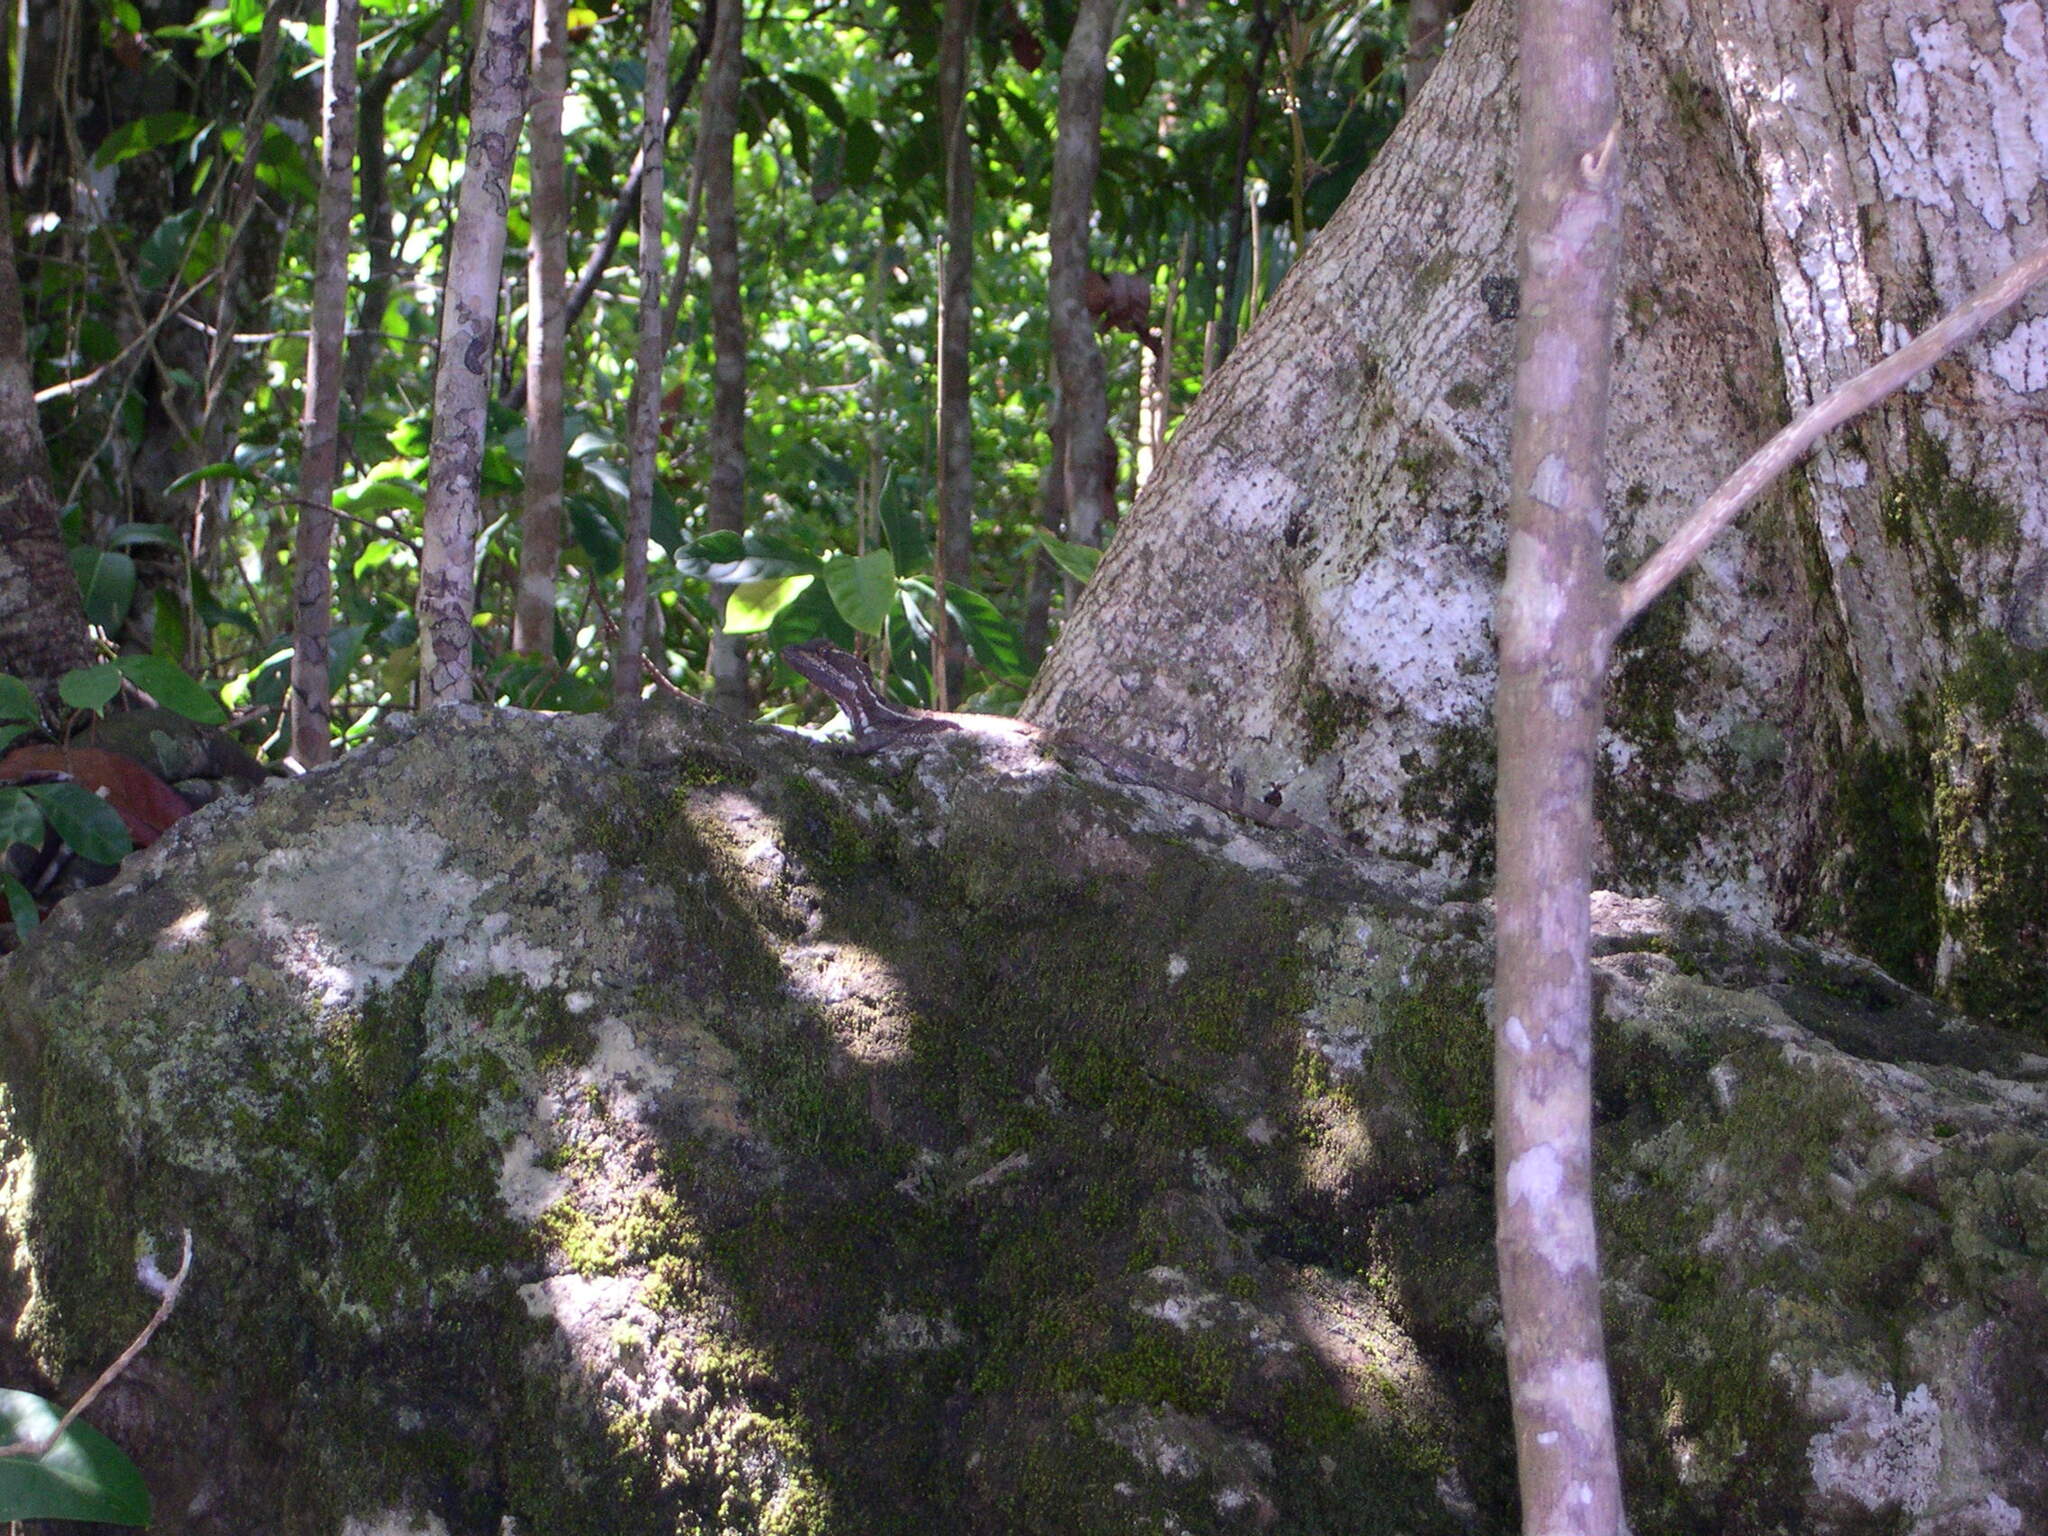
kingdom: Animalia
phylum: Chordata
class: Squamata
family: Corytophanidae
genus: Basiliscus
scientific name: Basiliscus basiliscus
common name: Common basilisk
